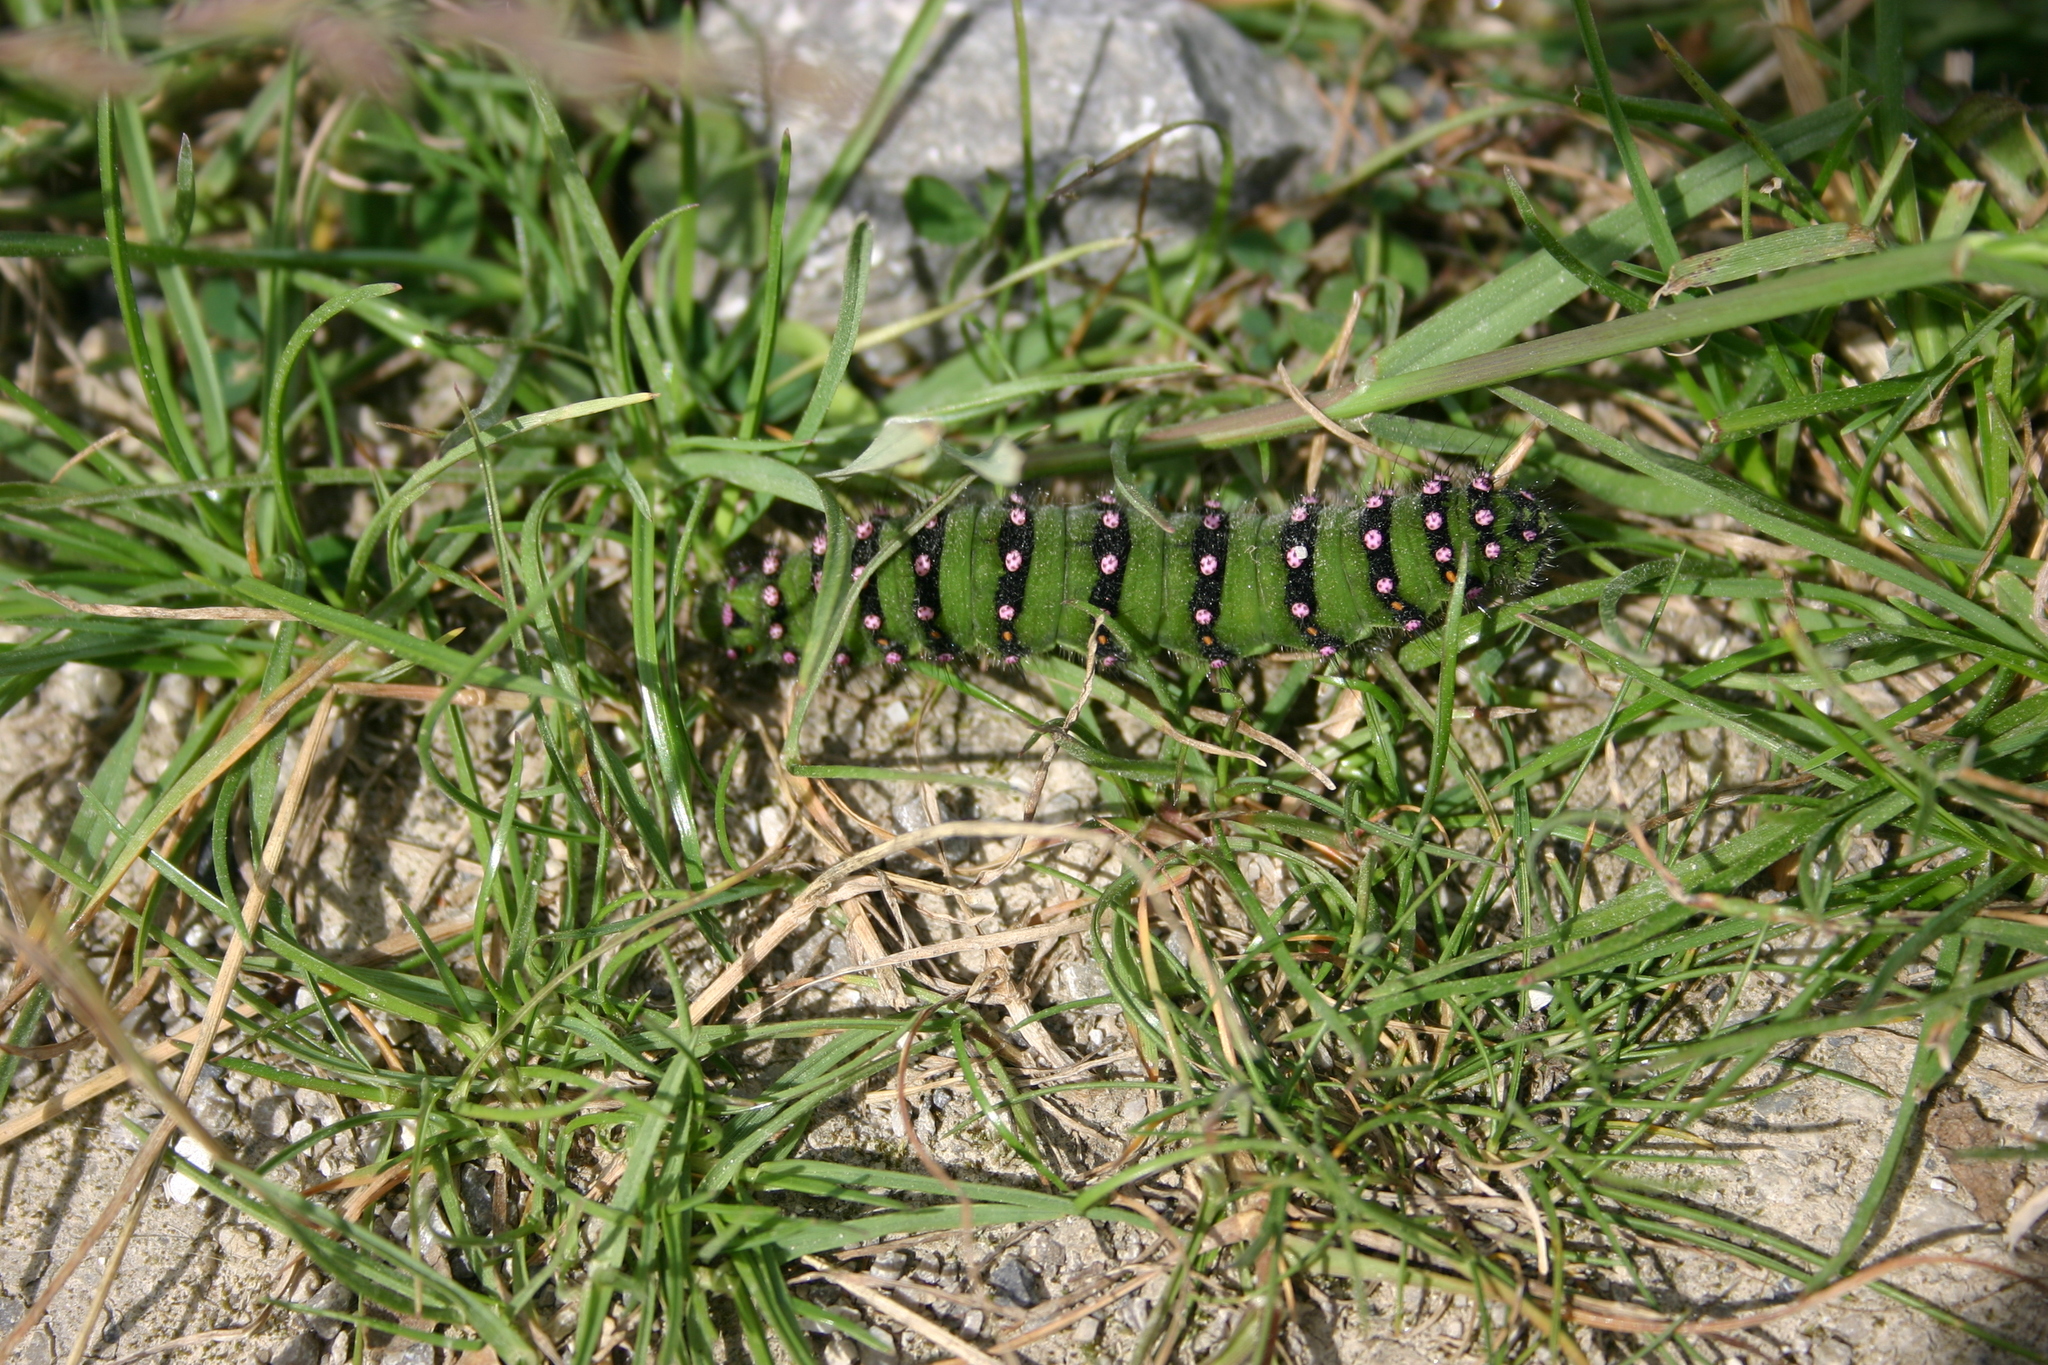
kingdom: Animalia
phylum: Arthropoda
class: Insecta
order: Lepidoptera
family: Saturniidae
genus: Saturnia
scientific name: Saturnia pavonia
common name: Emperor moth
